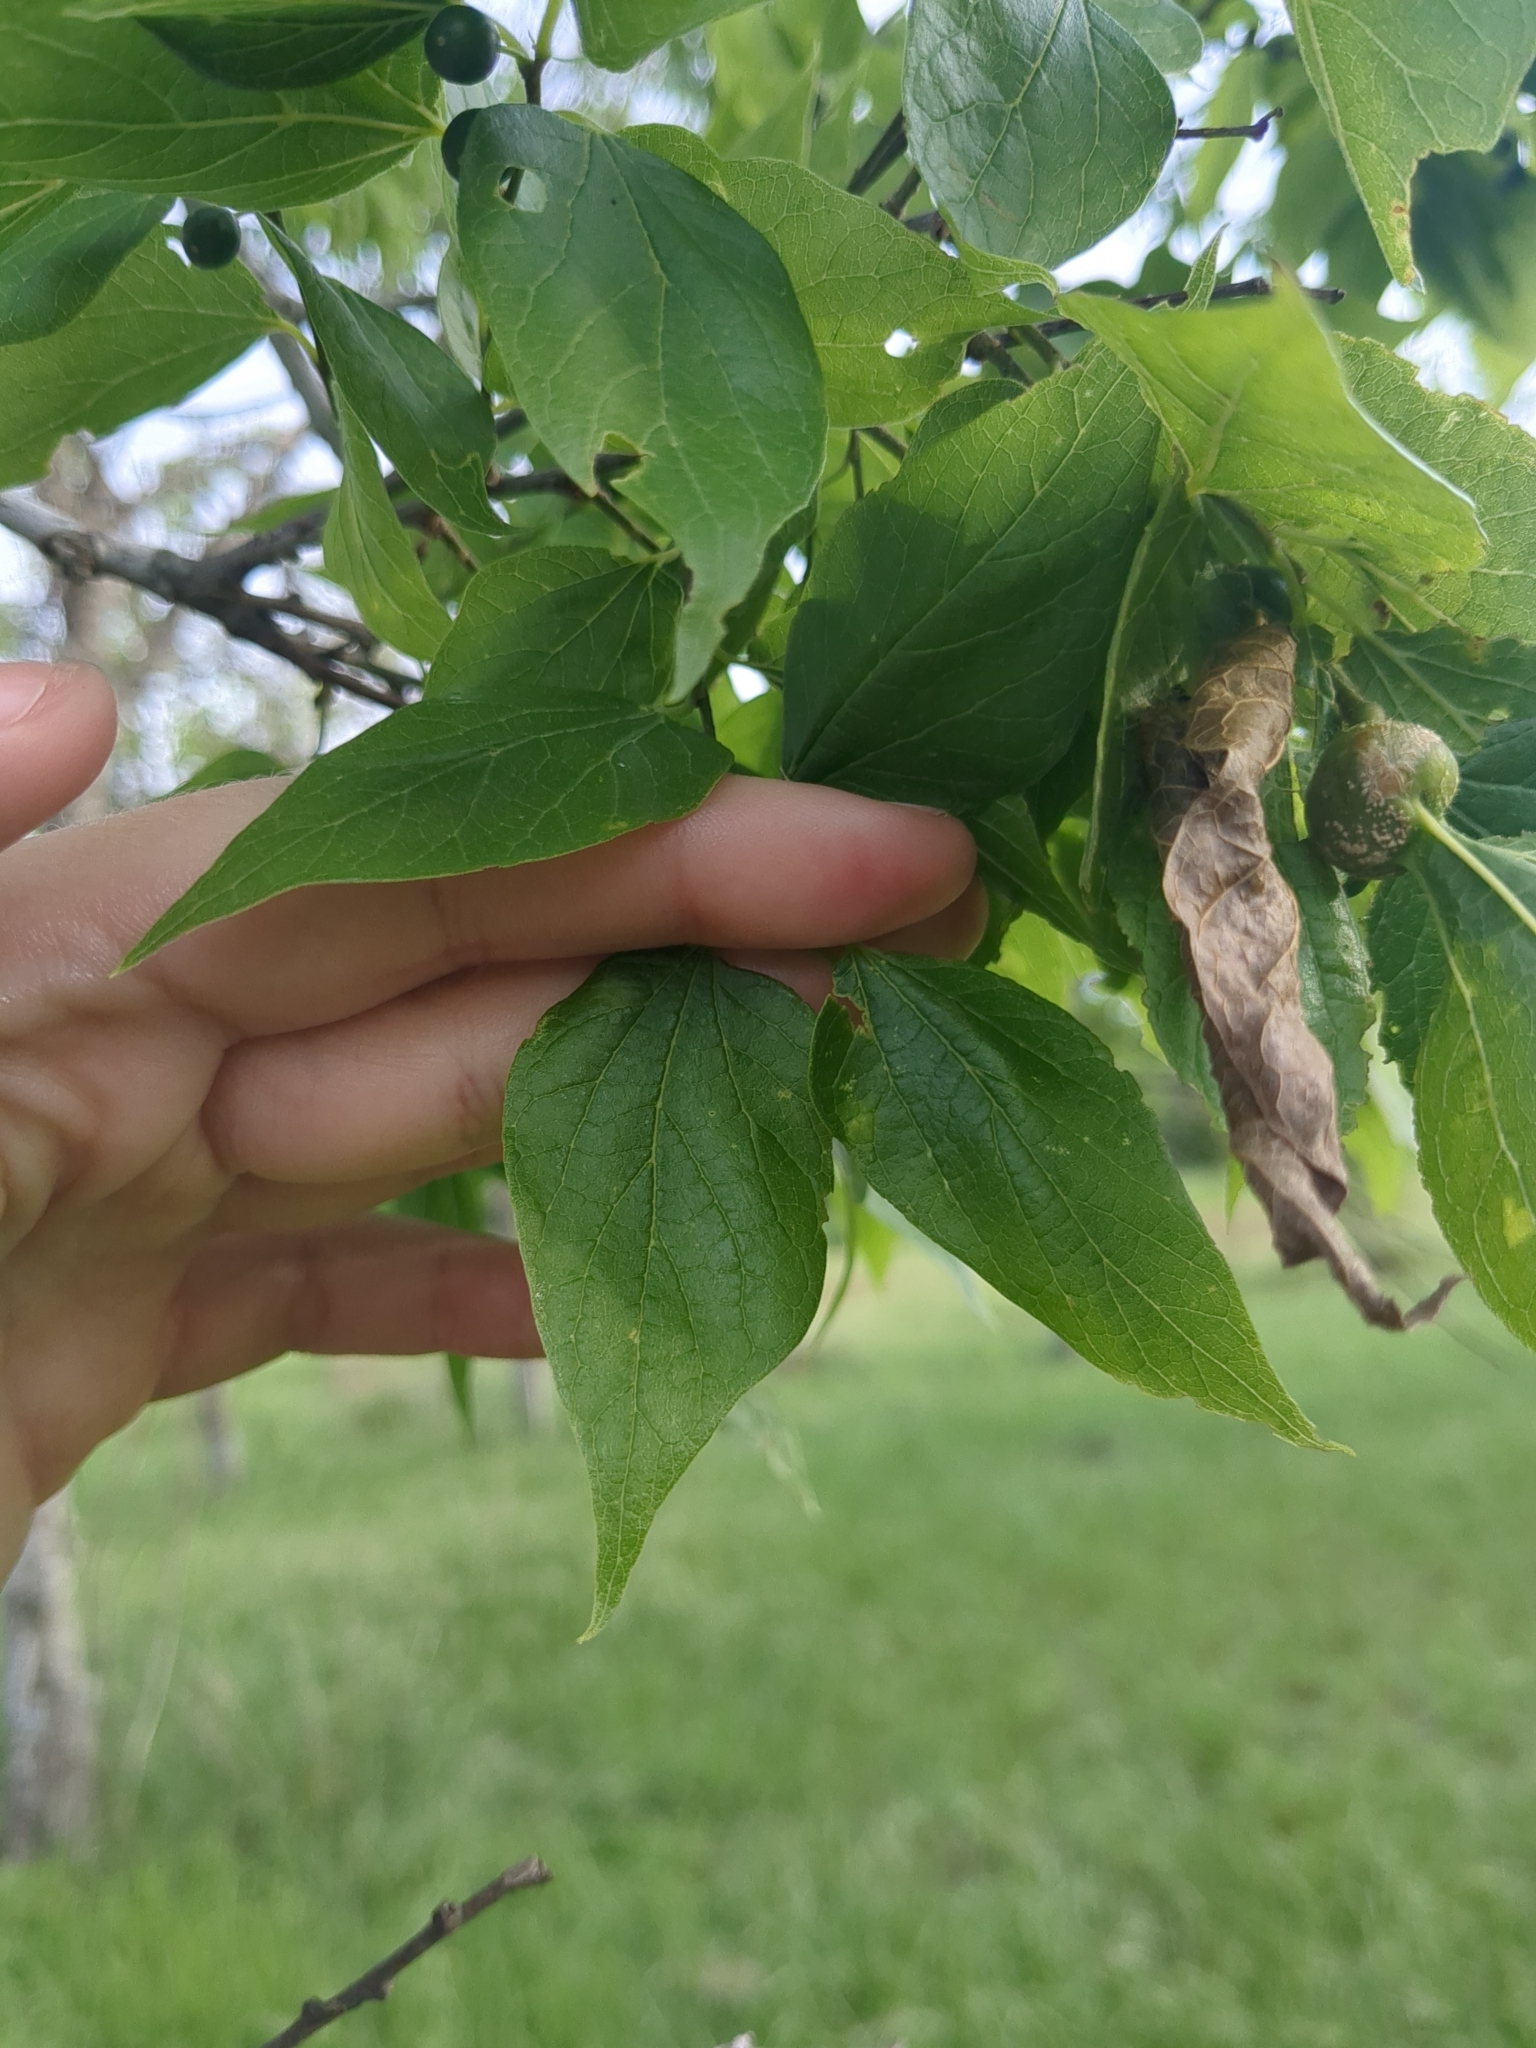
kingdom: Plantae
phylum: Tracheophyta
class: Magnoliopsida
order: Rosales
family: Cannabaceae
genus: Celtis
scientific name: Celtis laevigata
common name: Sugarberry
